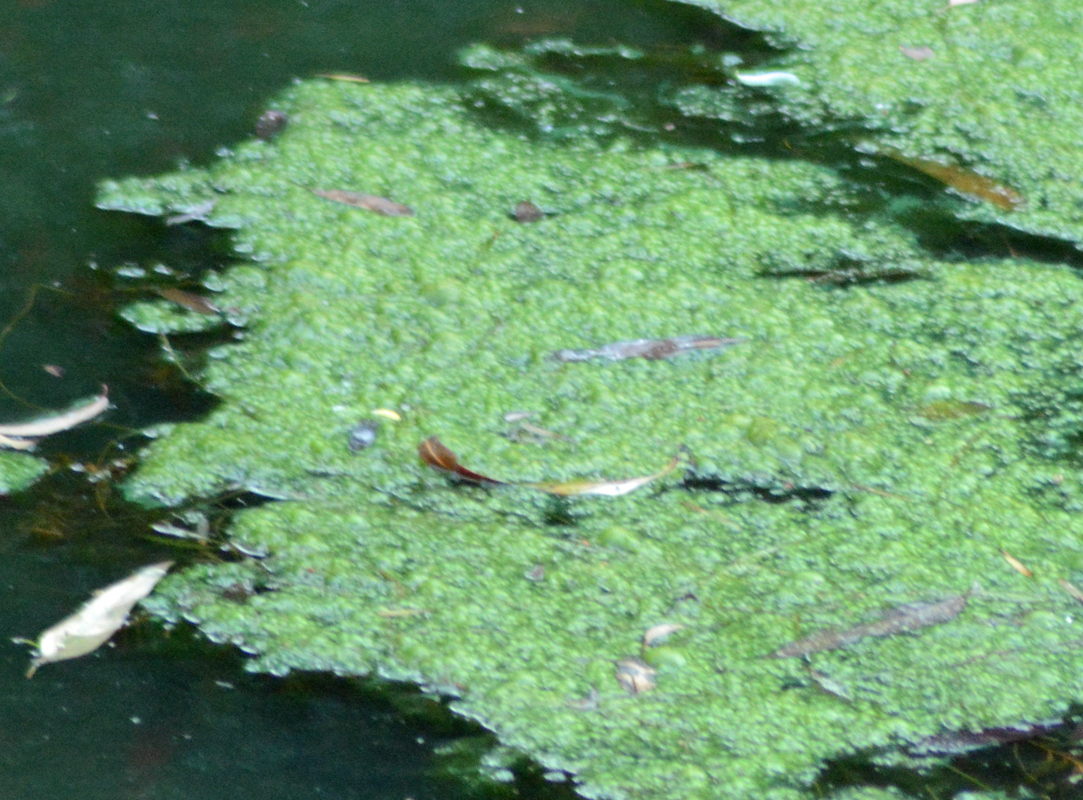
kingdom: Plantae
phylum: Tracheophyta
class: Liliopsida
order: Alismatales
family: Araceae
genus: Lemna
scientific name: Lemna minor
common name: Common duckweed
